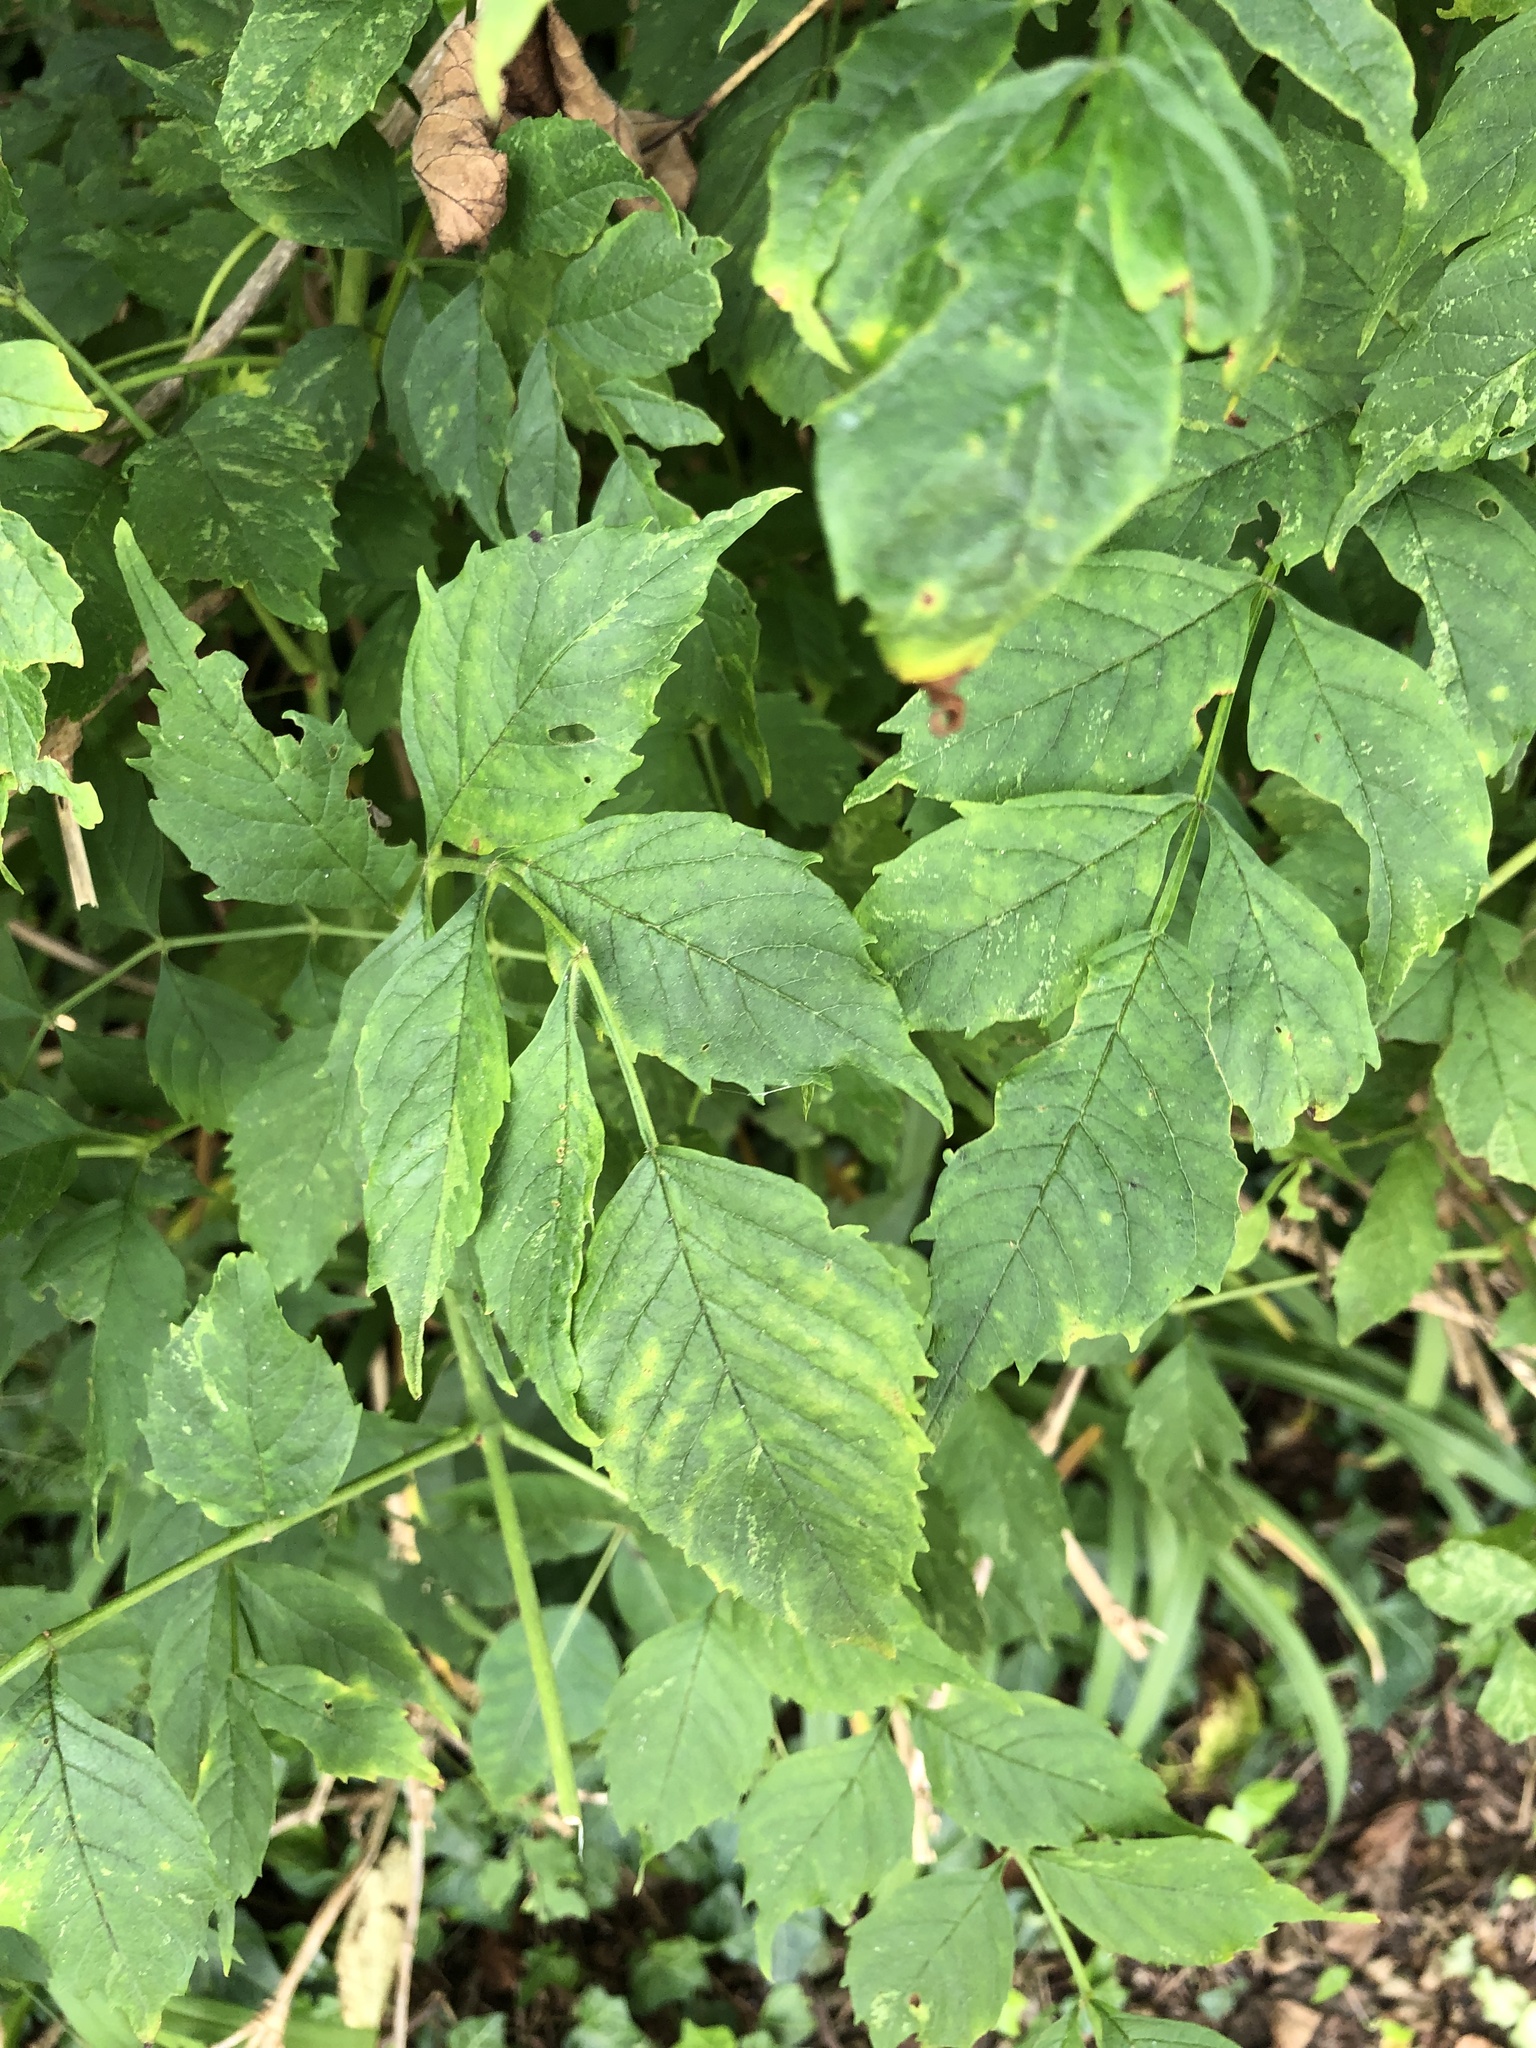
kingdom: Plantae
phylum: Tracheophyta
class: Magnoliopsida
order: Lamiales
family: Bignoniaceae
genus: Campsis
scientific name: Campsis radicans
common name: Trumpet-creeper
